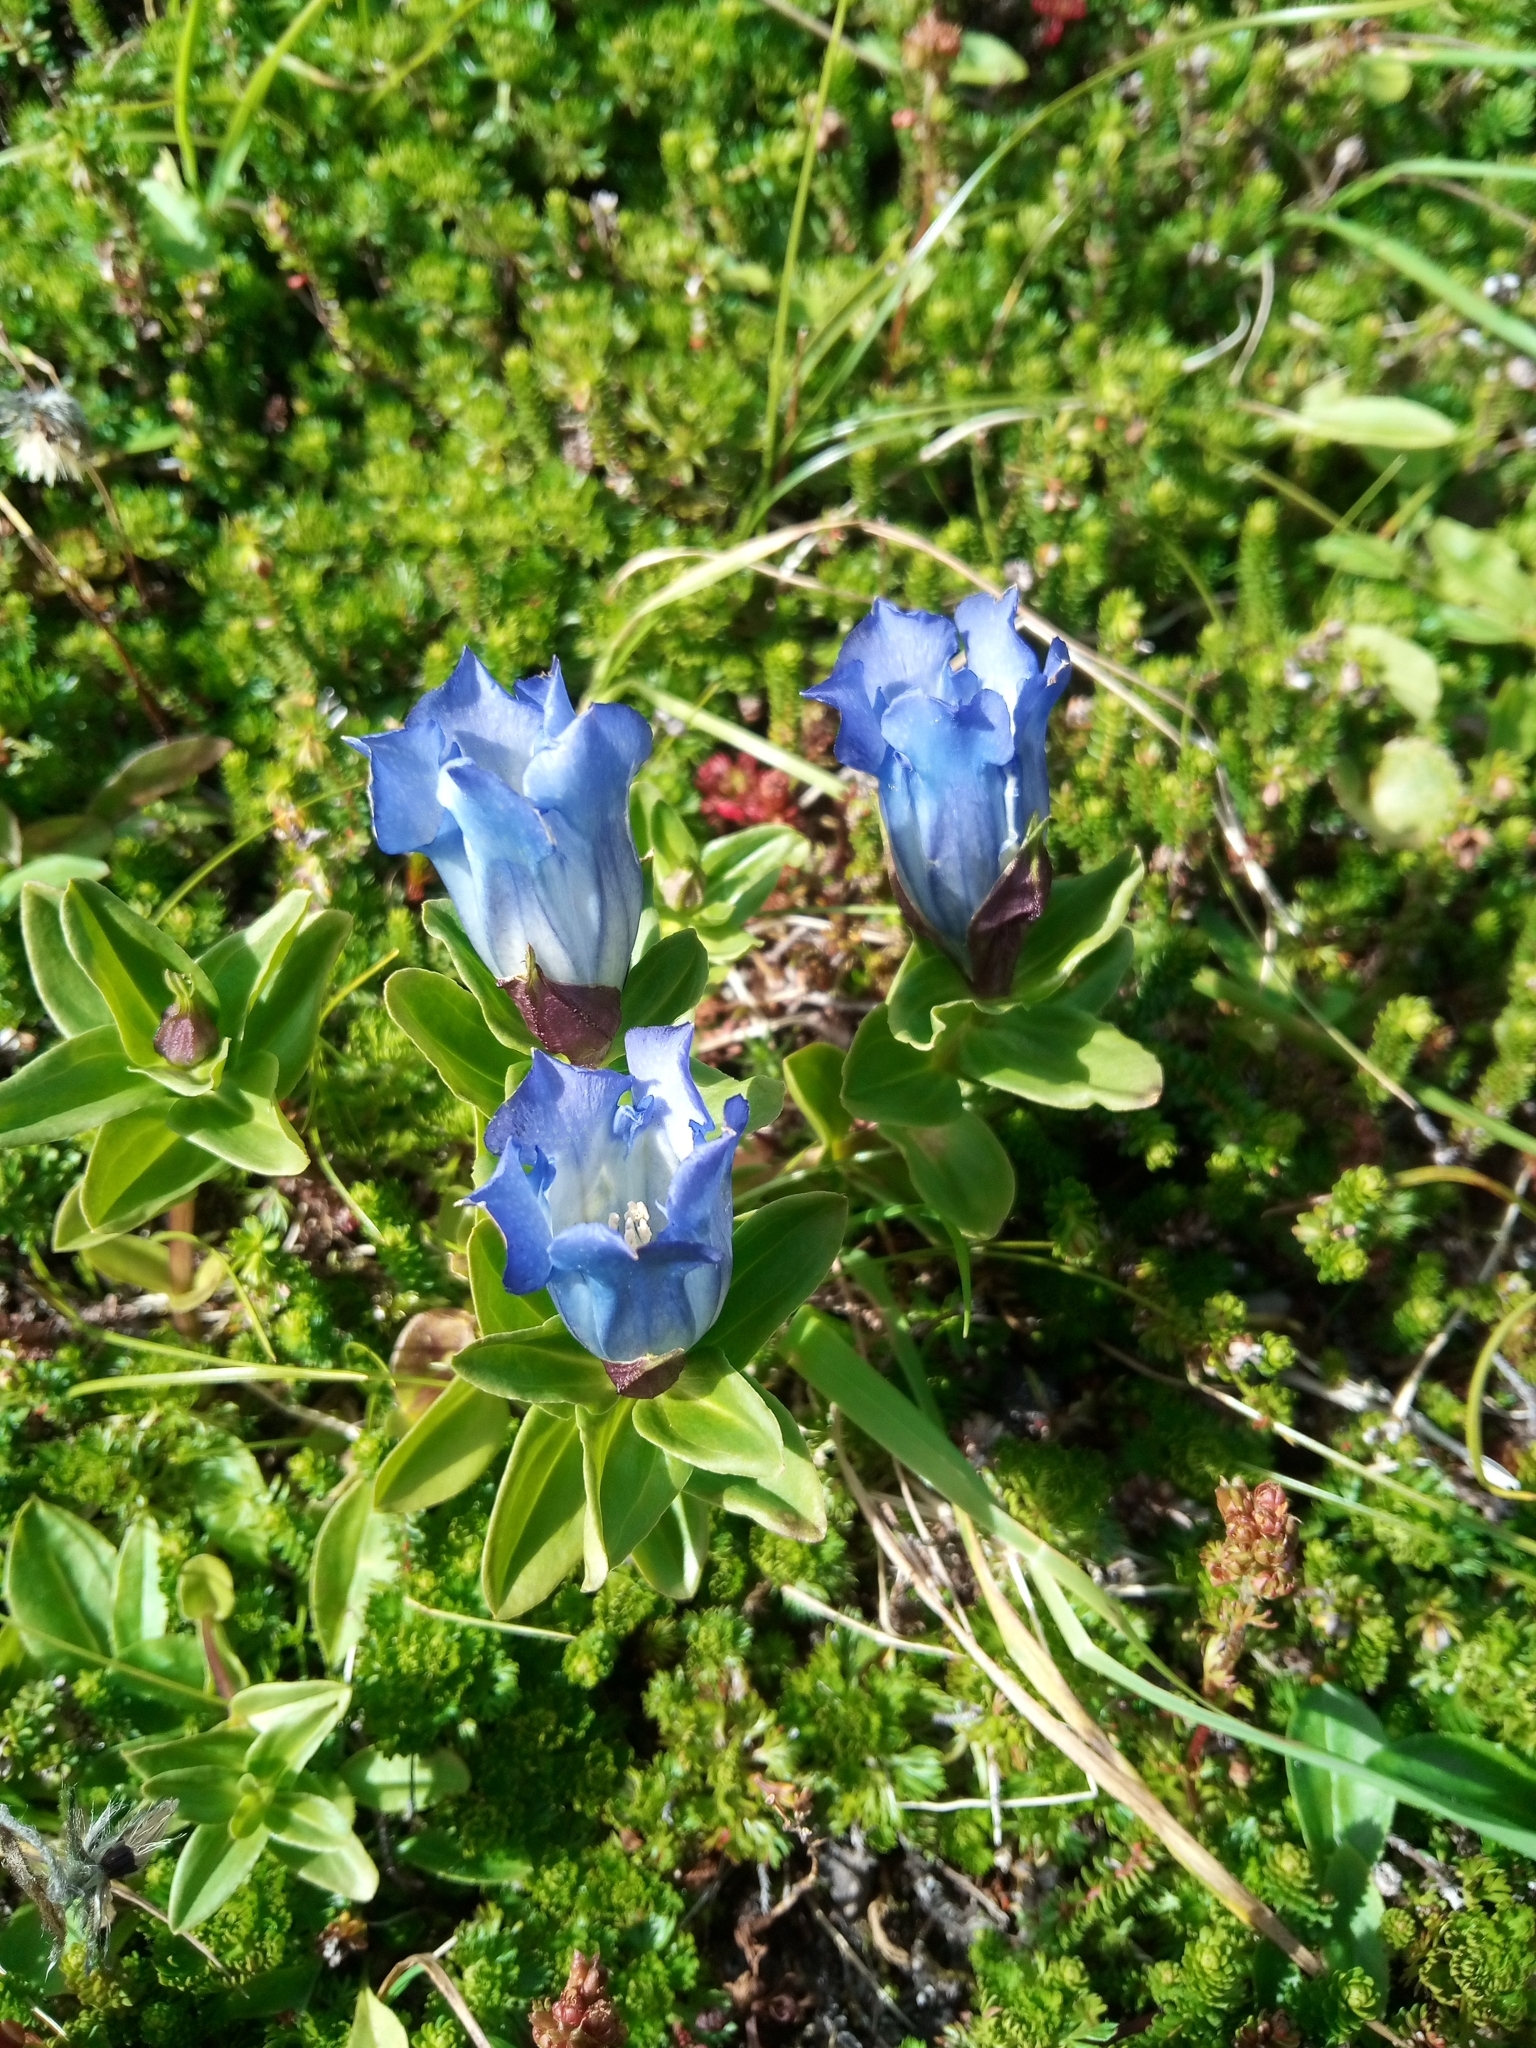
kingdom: Plantae
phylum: Tracheophyta
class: Magnoliopsida
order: Gentianales
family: Gentianaceae
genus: Gentiana
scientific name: Gentiana platypetala
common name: Broad-petalled gentian
